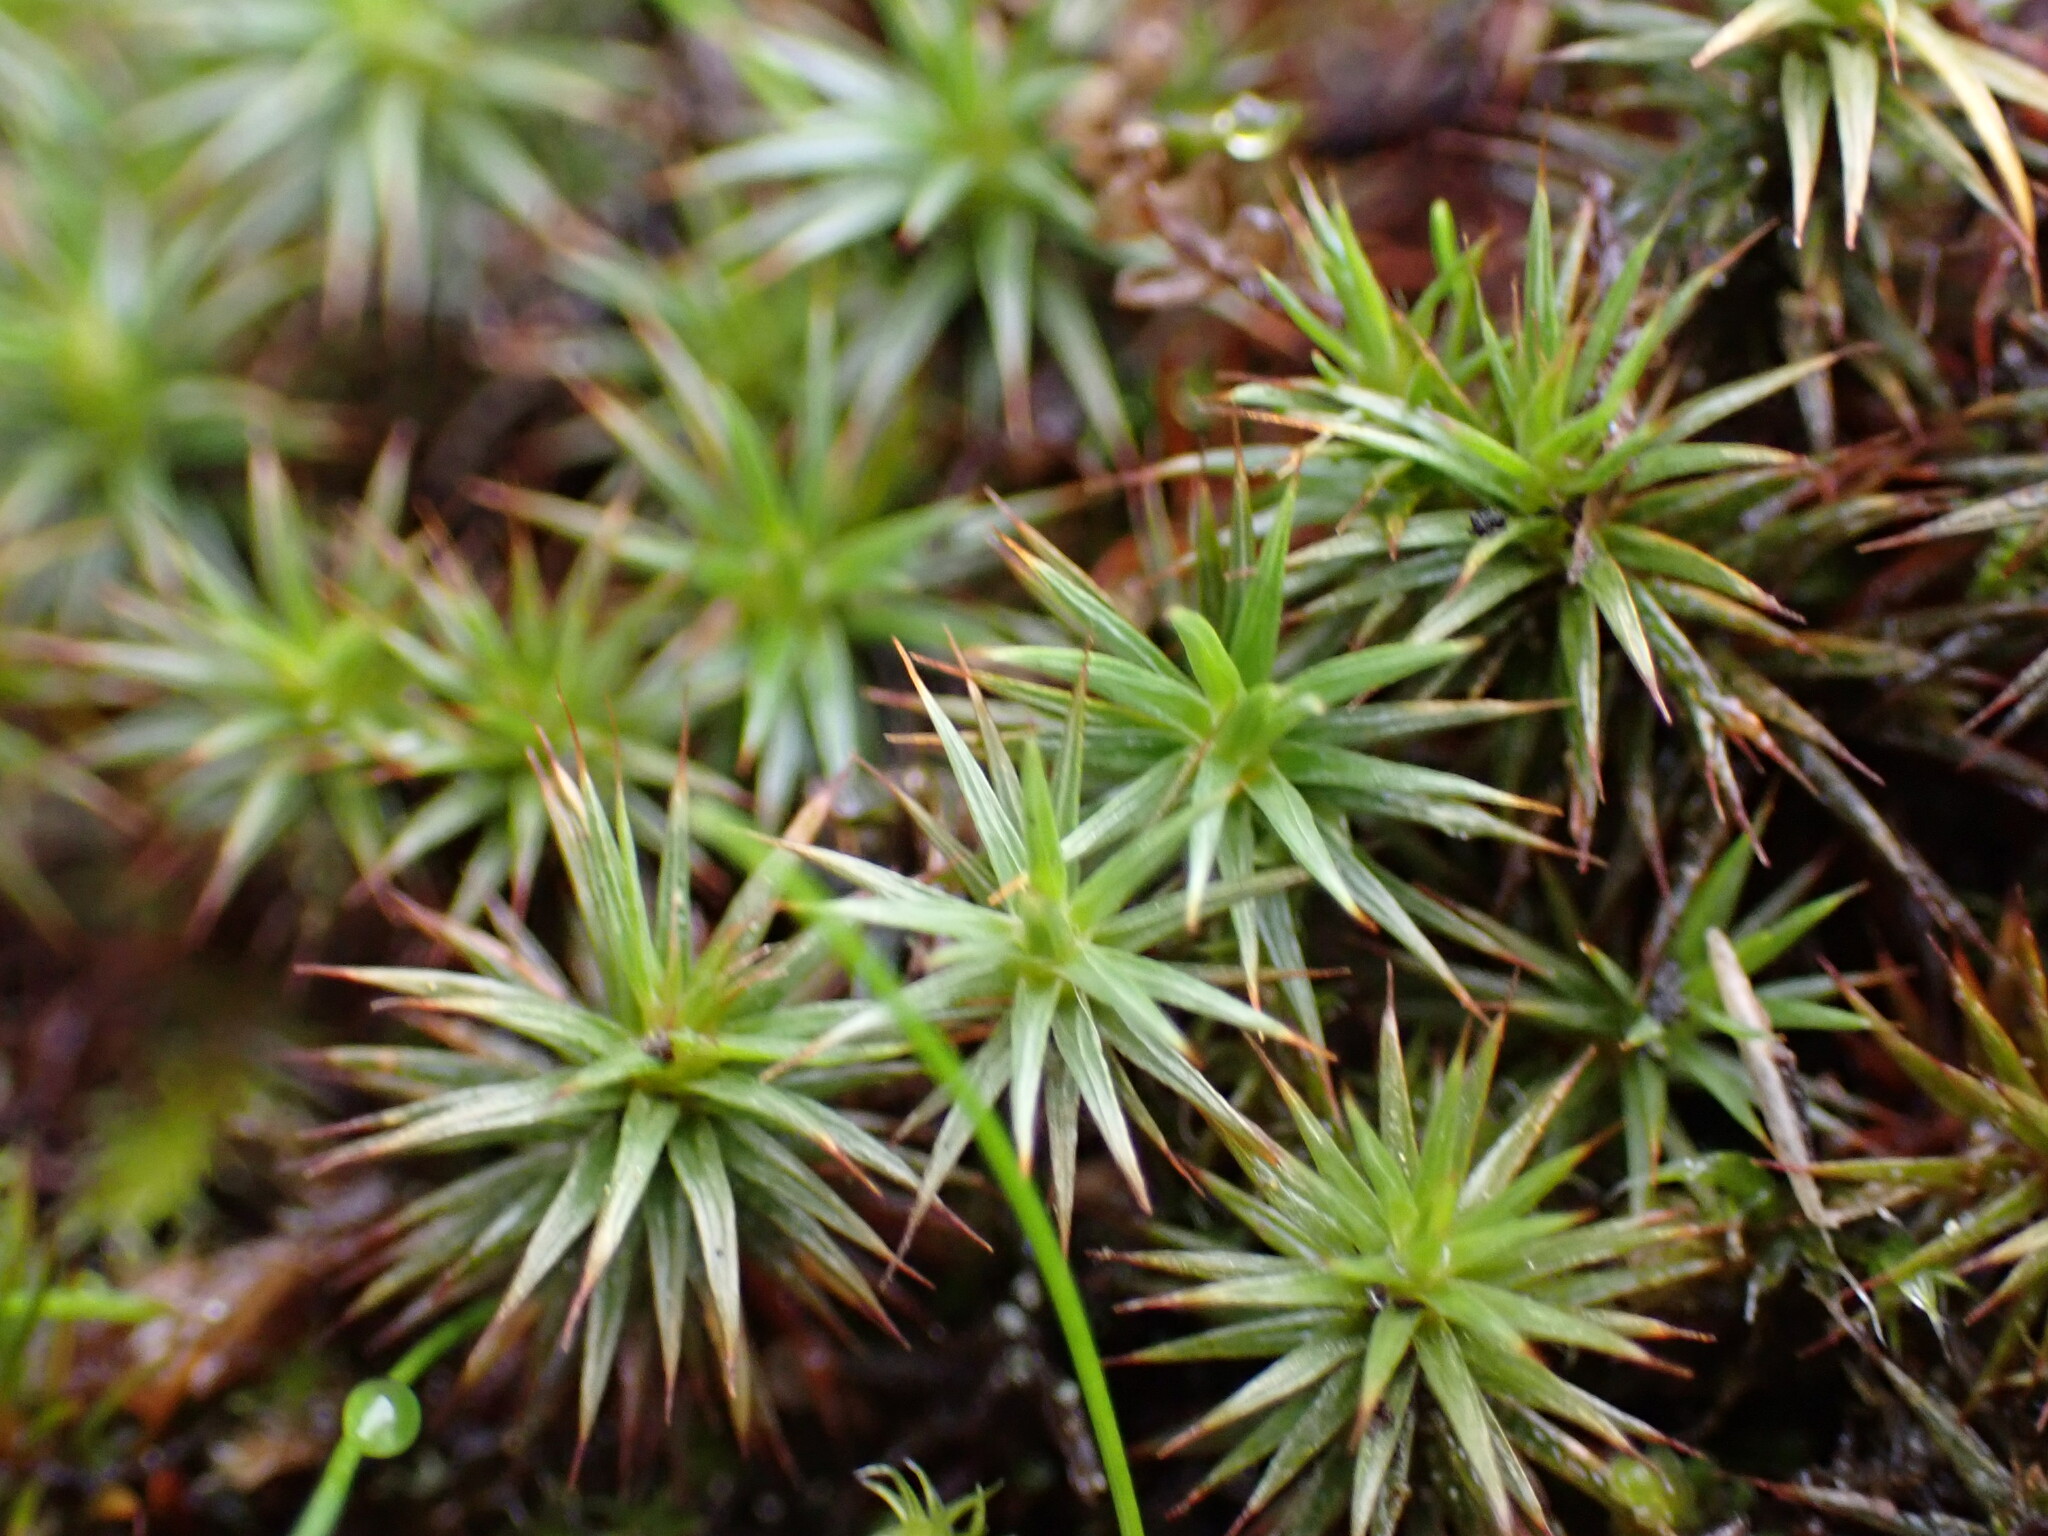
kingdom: Plantae
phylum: Bryophyta
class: Polytrichopsida
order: Polytrichales
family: Polytrichaceae
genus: Polytrichum
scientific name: Polytrichum juniperinum
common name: Juniper haircap moss
